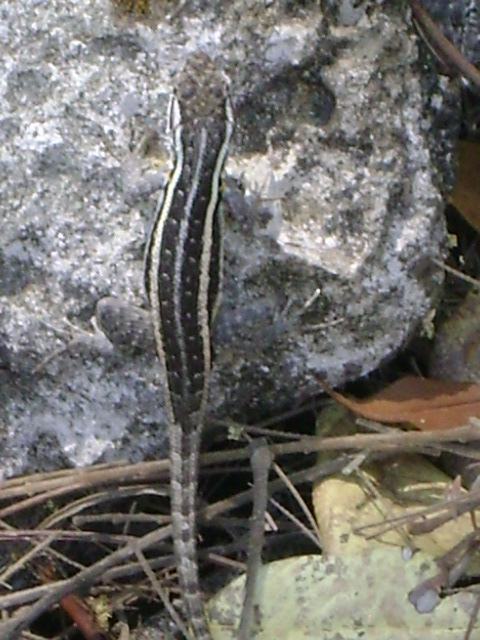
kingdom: Animalia
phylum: Chordata
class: Squamata
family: Phrynosomatidae
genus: Sceloporus
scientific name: Sceloporus variabilis
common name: Rosebelly lizard
